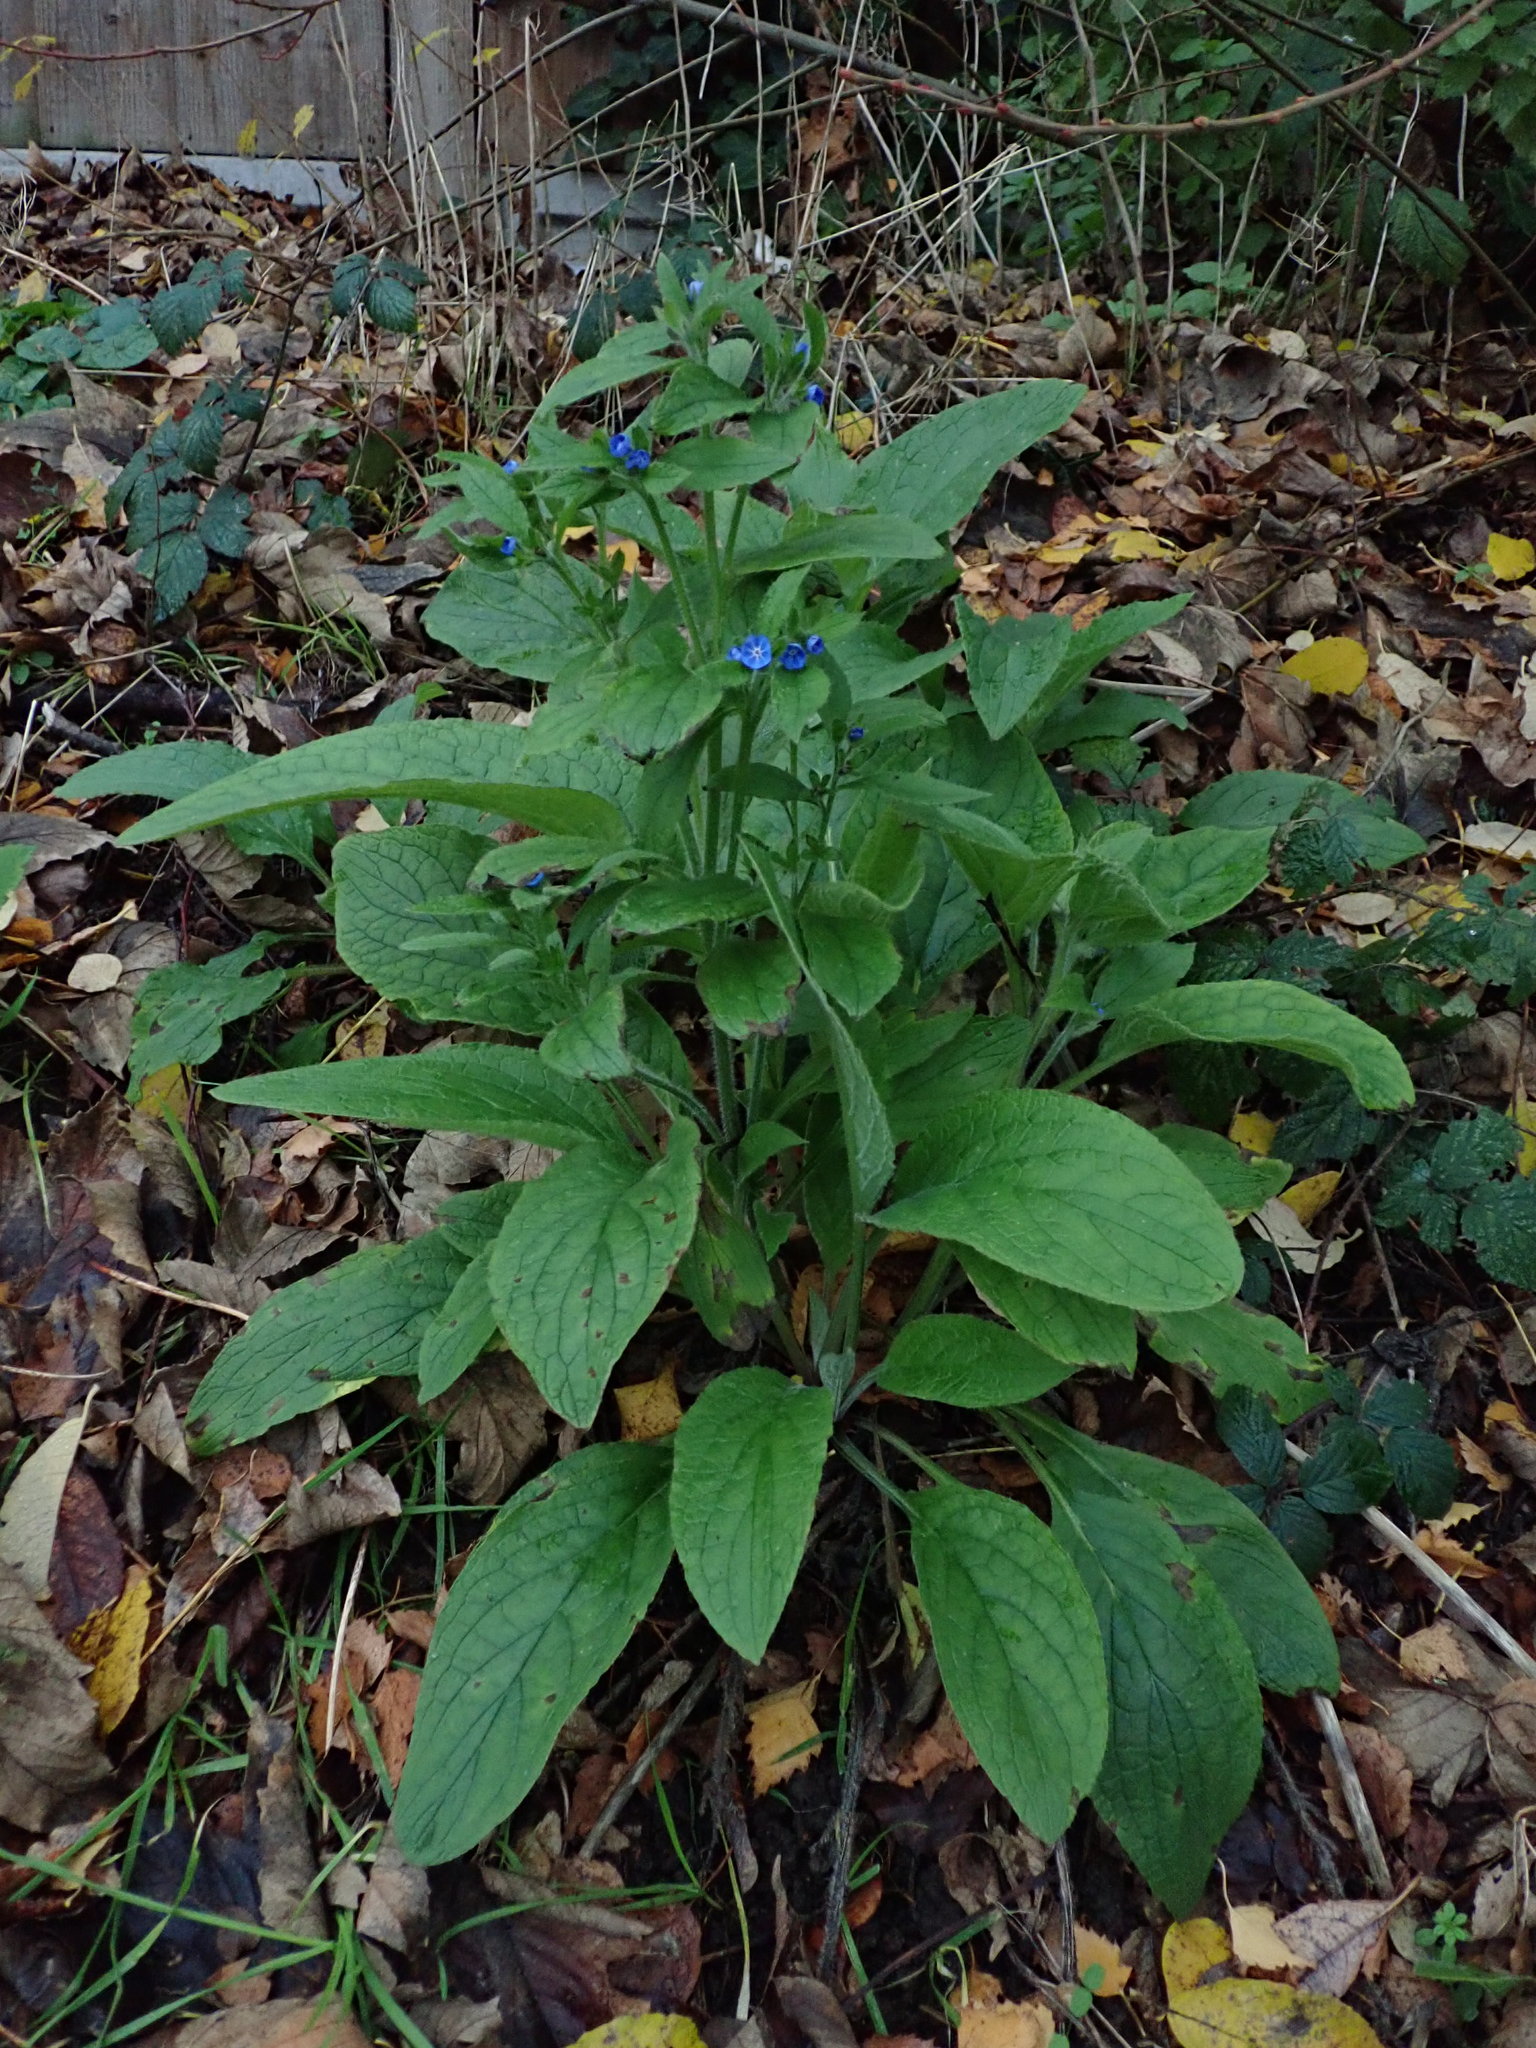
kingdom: Plantae
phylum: Tracheophyta
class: Magnoliopsida
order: Boraginales
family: Boraginaceae
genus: Pentaglottis
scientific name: Pentaglottis sempervirens
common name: Green alkanet
